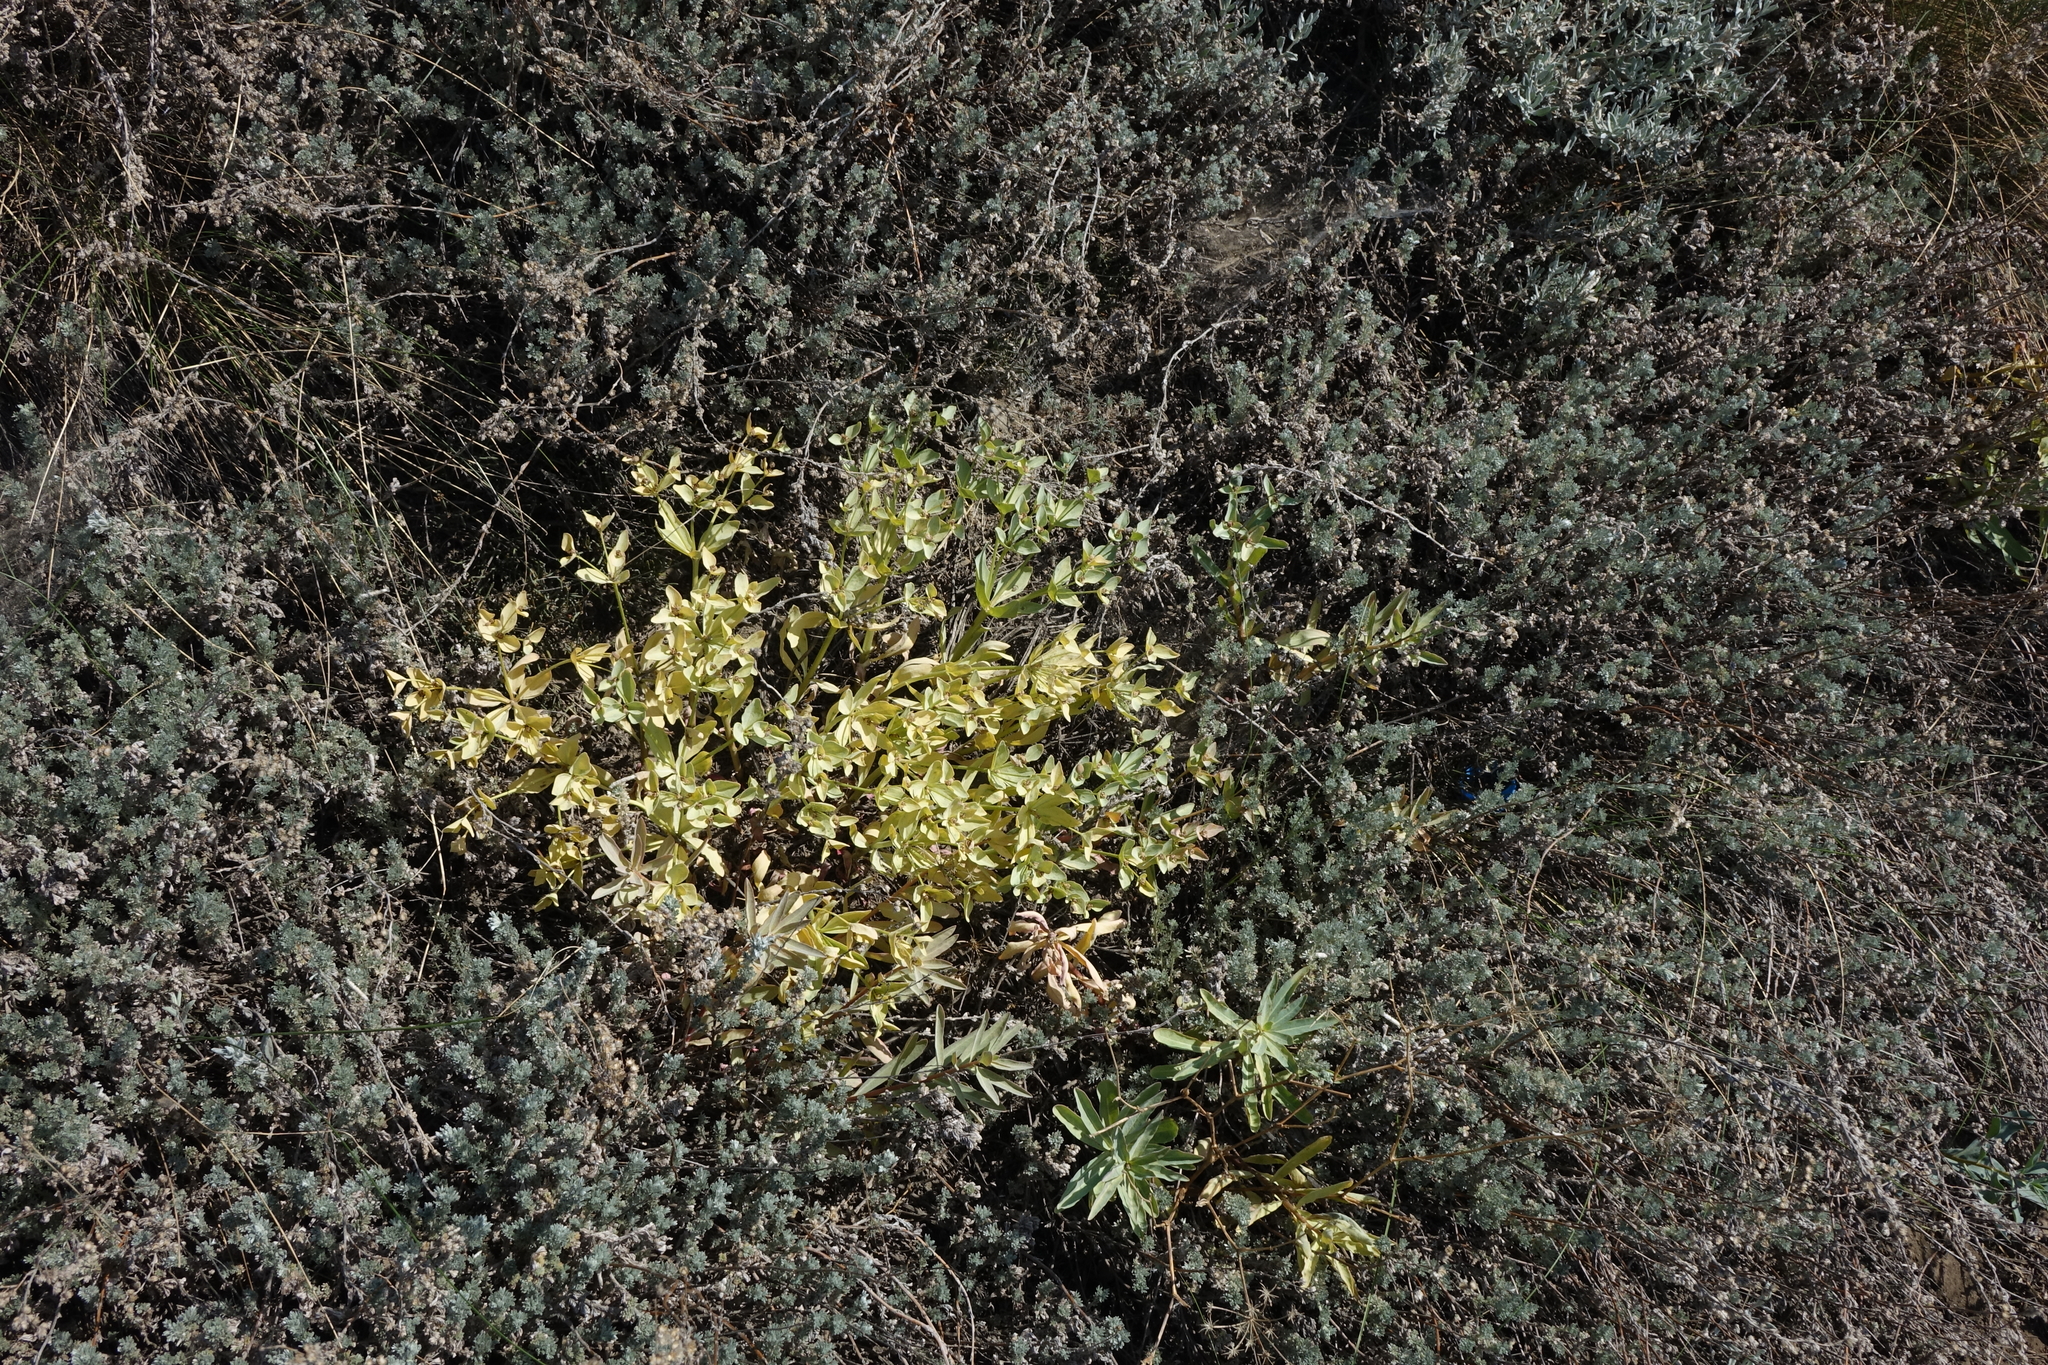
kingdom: Plantae
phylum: Tracheophyta
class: Magnoliopsida
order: Malpighiales
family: Euphorbiaceae
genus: Euphorbia
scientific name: Euphorbia mongolica
